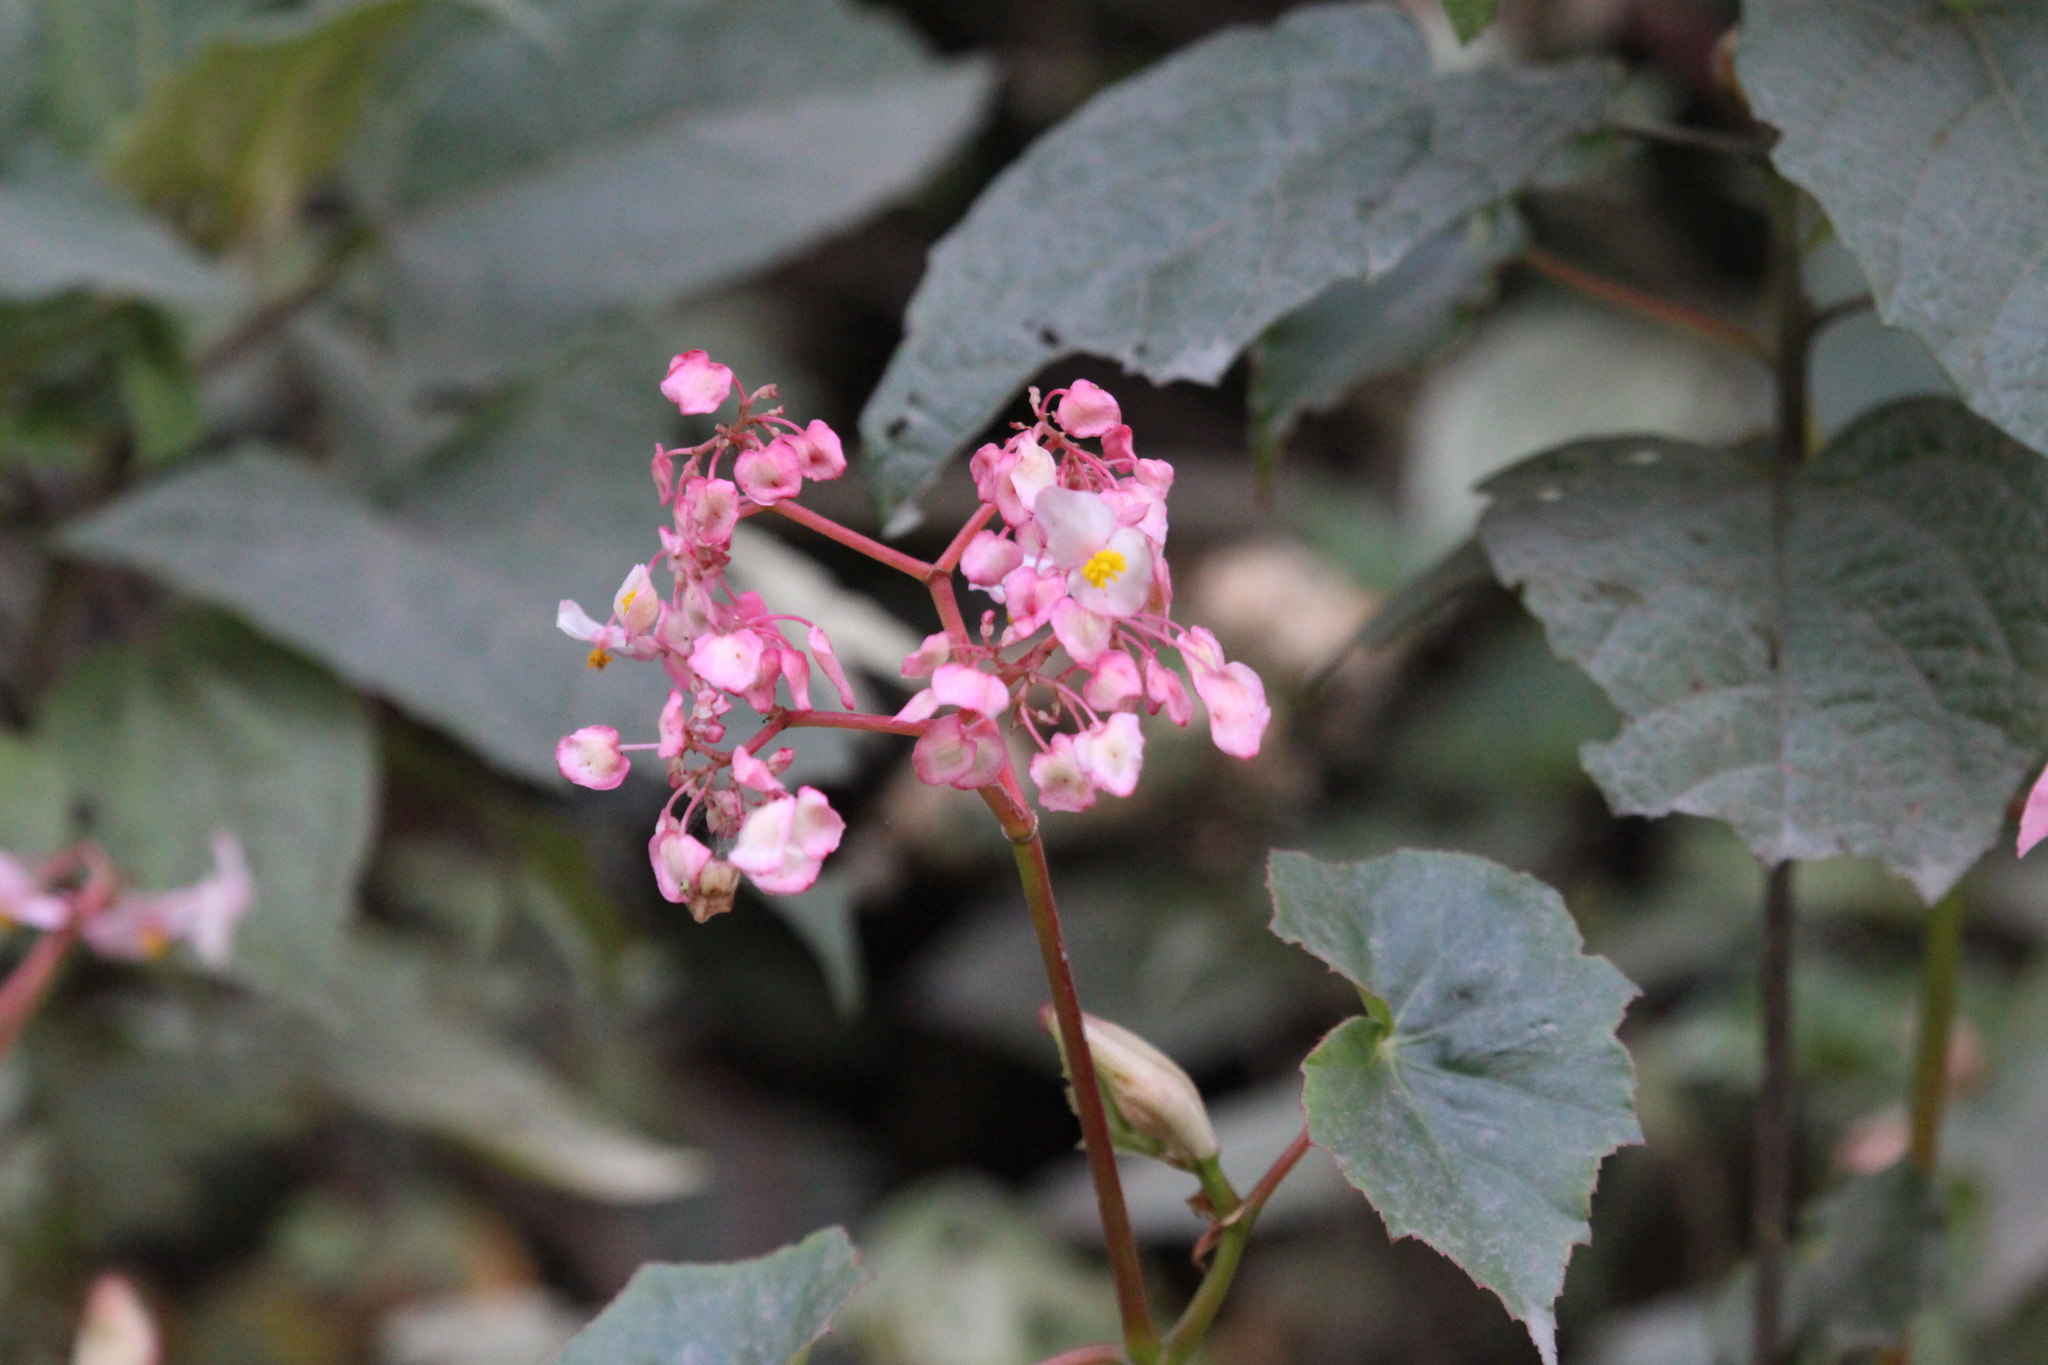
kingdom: Plantae
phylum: Tracheophyta
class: Magnoliopsida
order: Cucurbitales
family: Begoniaceae
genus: Begonia
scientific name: Begonia bracteosa
